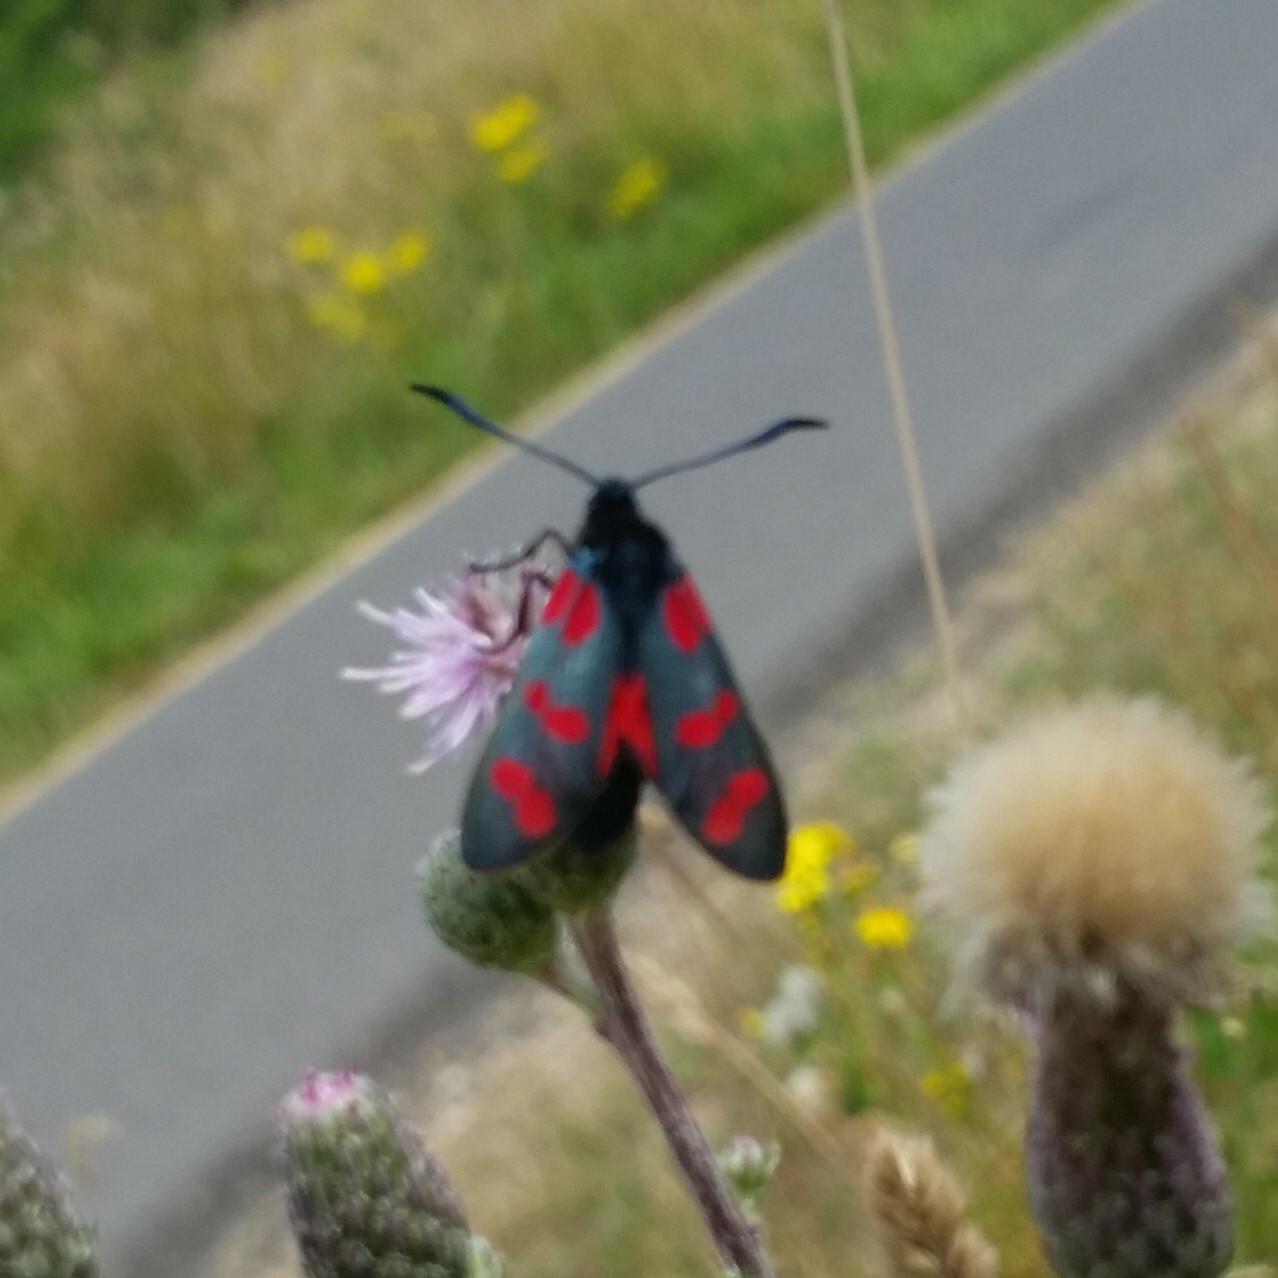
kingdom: Animalia
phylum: Arthropoda
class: Insecta
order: Lepidoptera
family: Zygaenidae
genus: Zygaena
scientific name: Zygaena filipendulae
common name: Six-spot burnet
